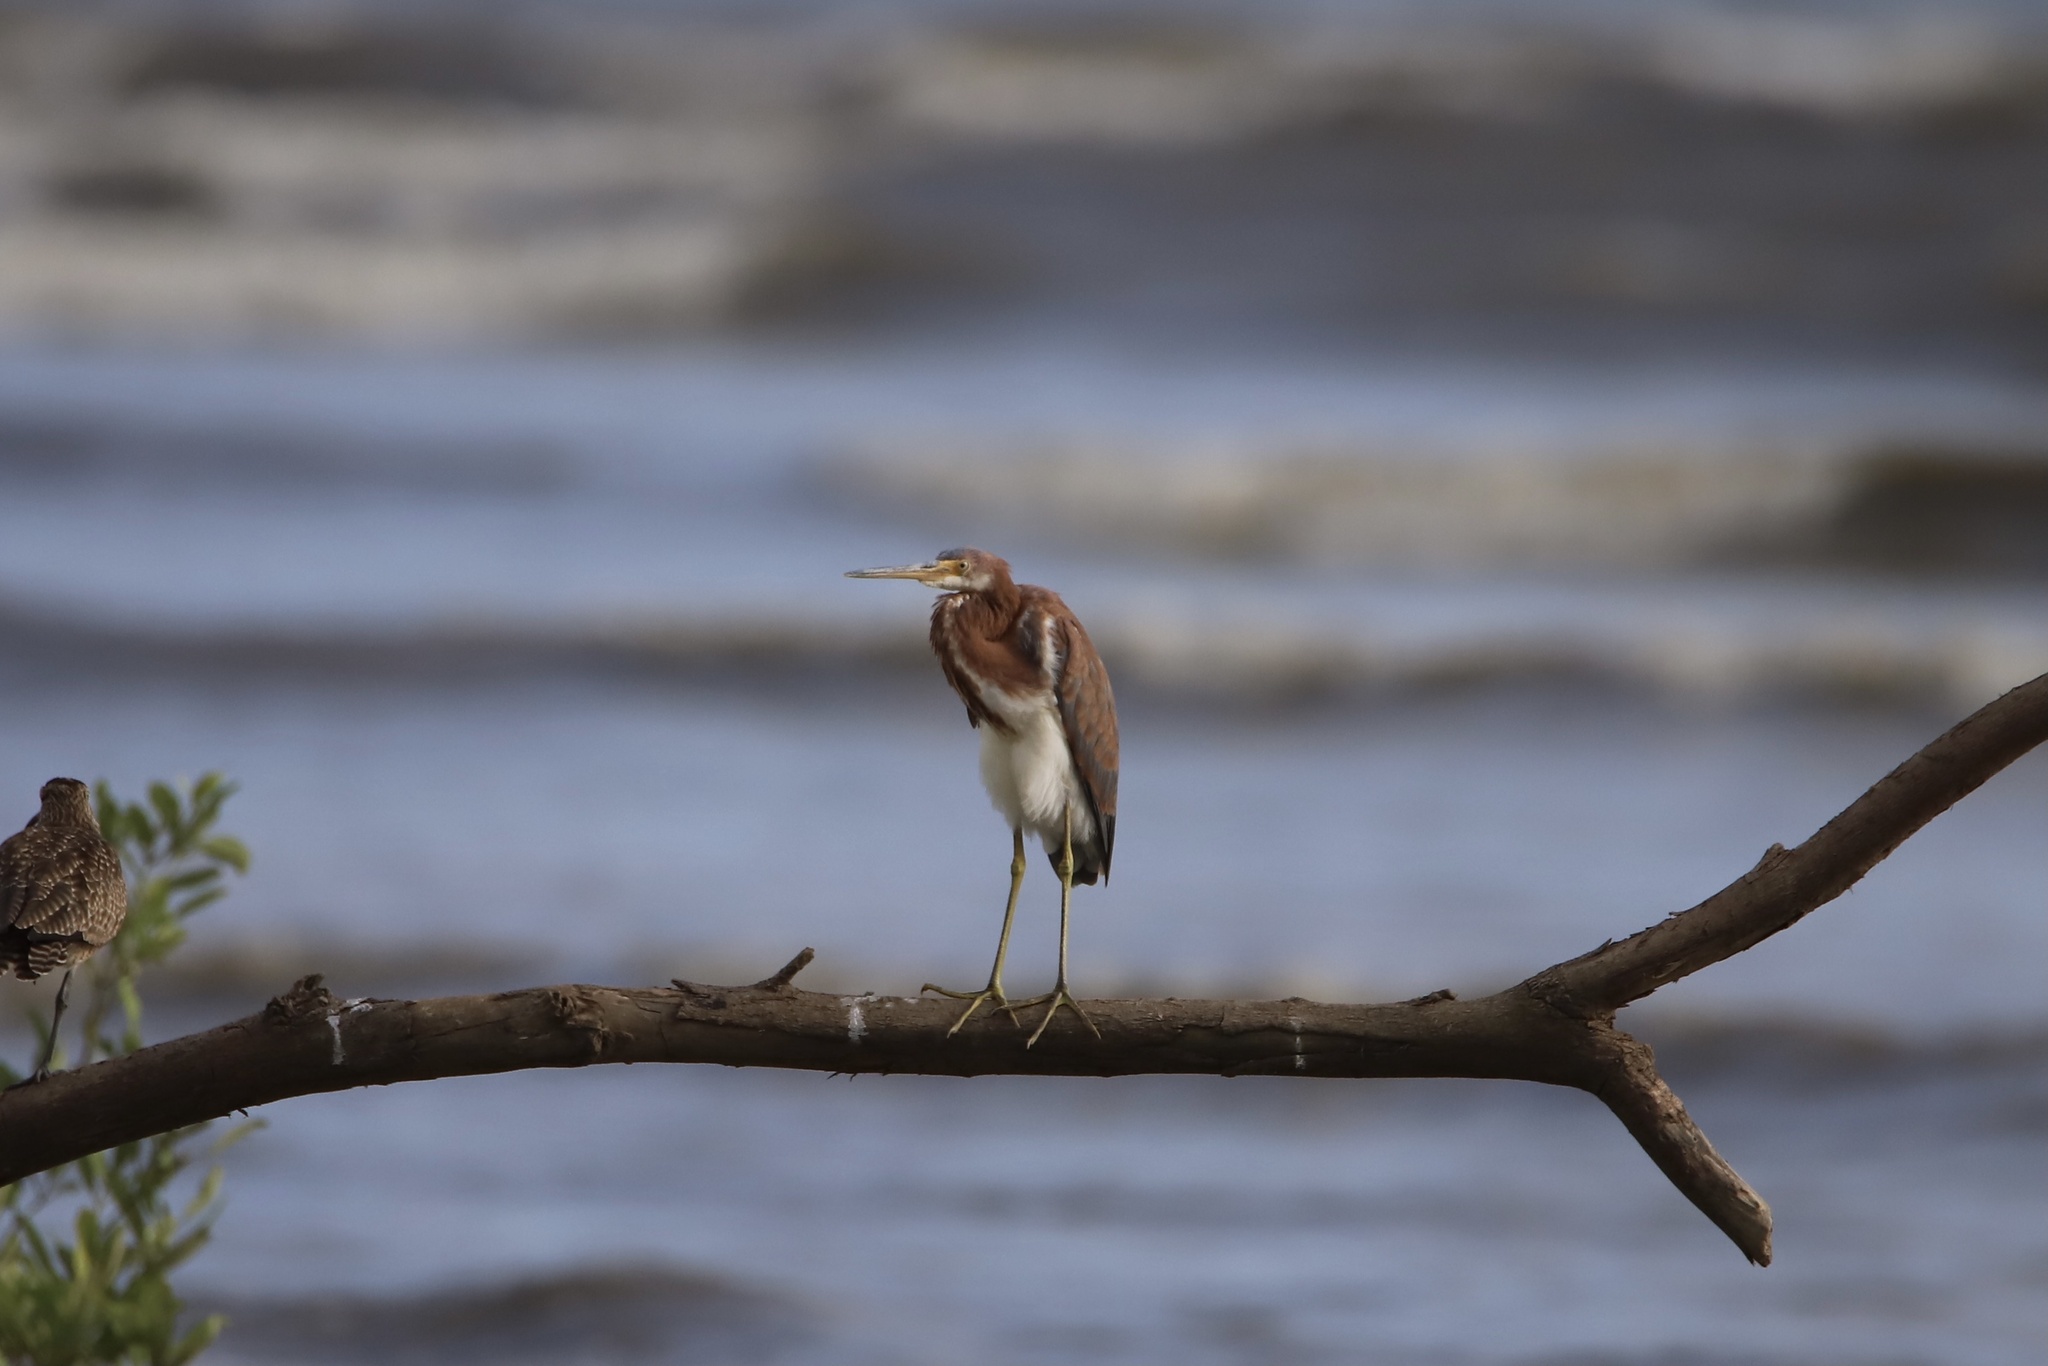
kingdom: Animalia
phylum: Chordata
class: Aves
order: Pelecaniformes
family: Ardeidae
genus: Egretta
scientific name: Egretta tricolor
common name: Tricolored heron
